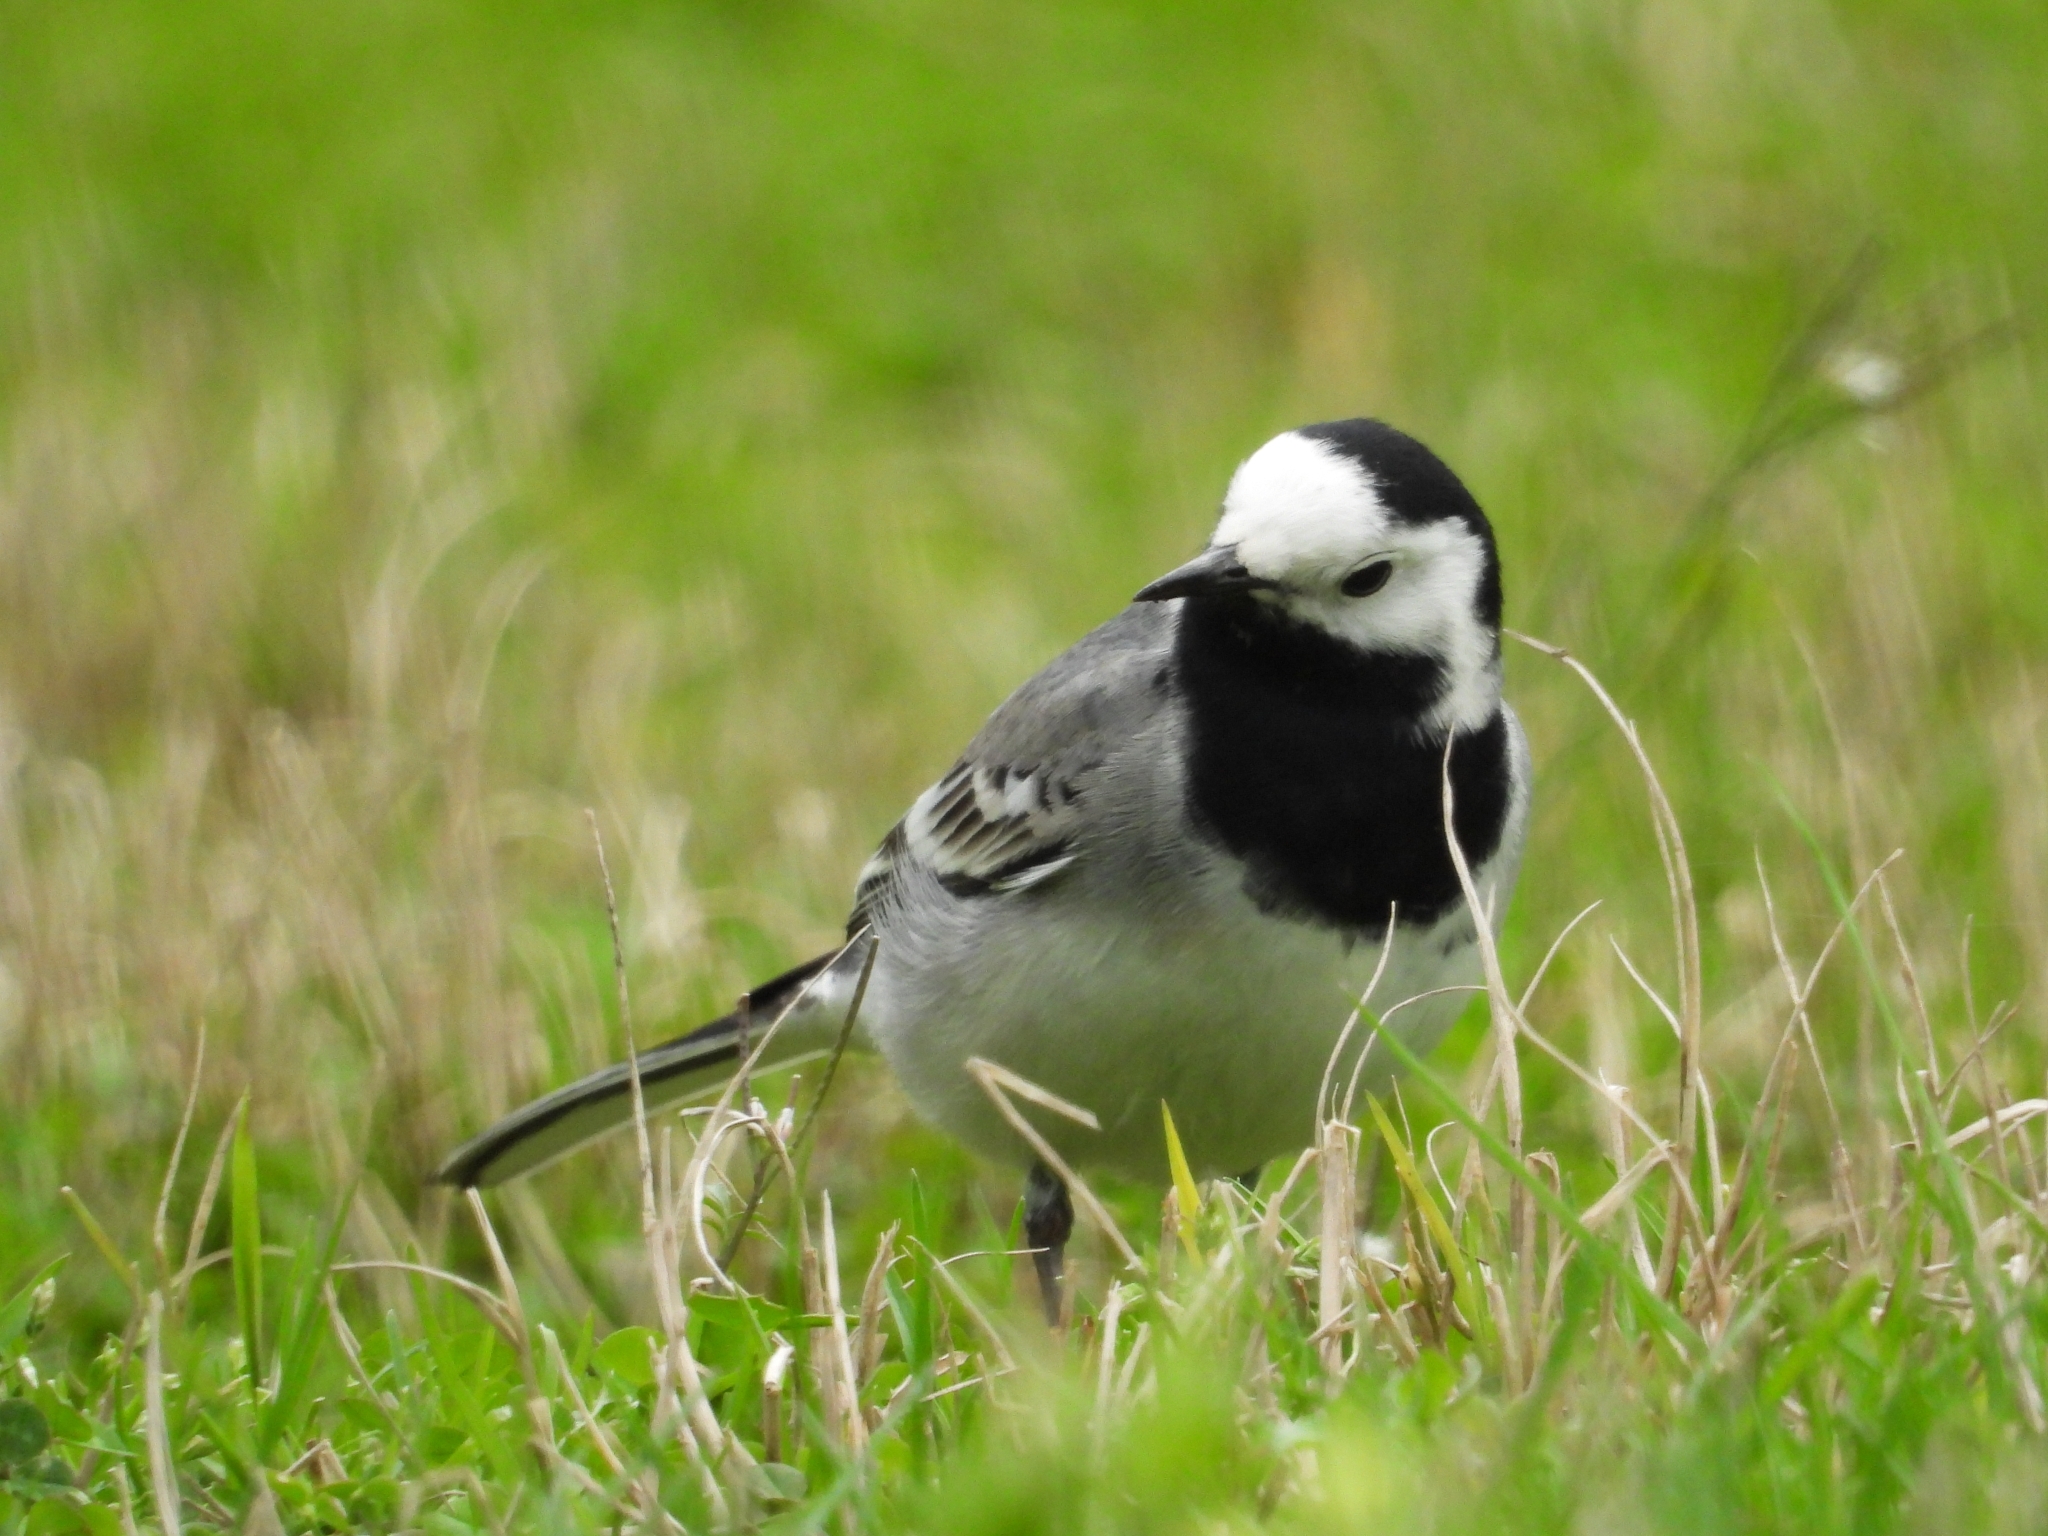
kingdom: Animalia
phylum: Chordata
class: Aves
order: Passeriformes
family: Motacillidae
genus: Motacilla
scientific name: Motacilla alba
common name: White wagtail
